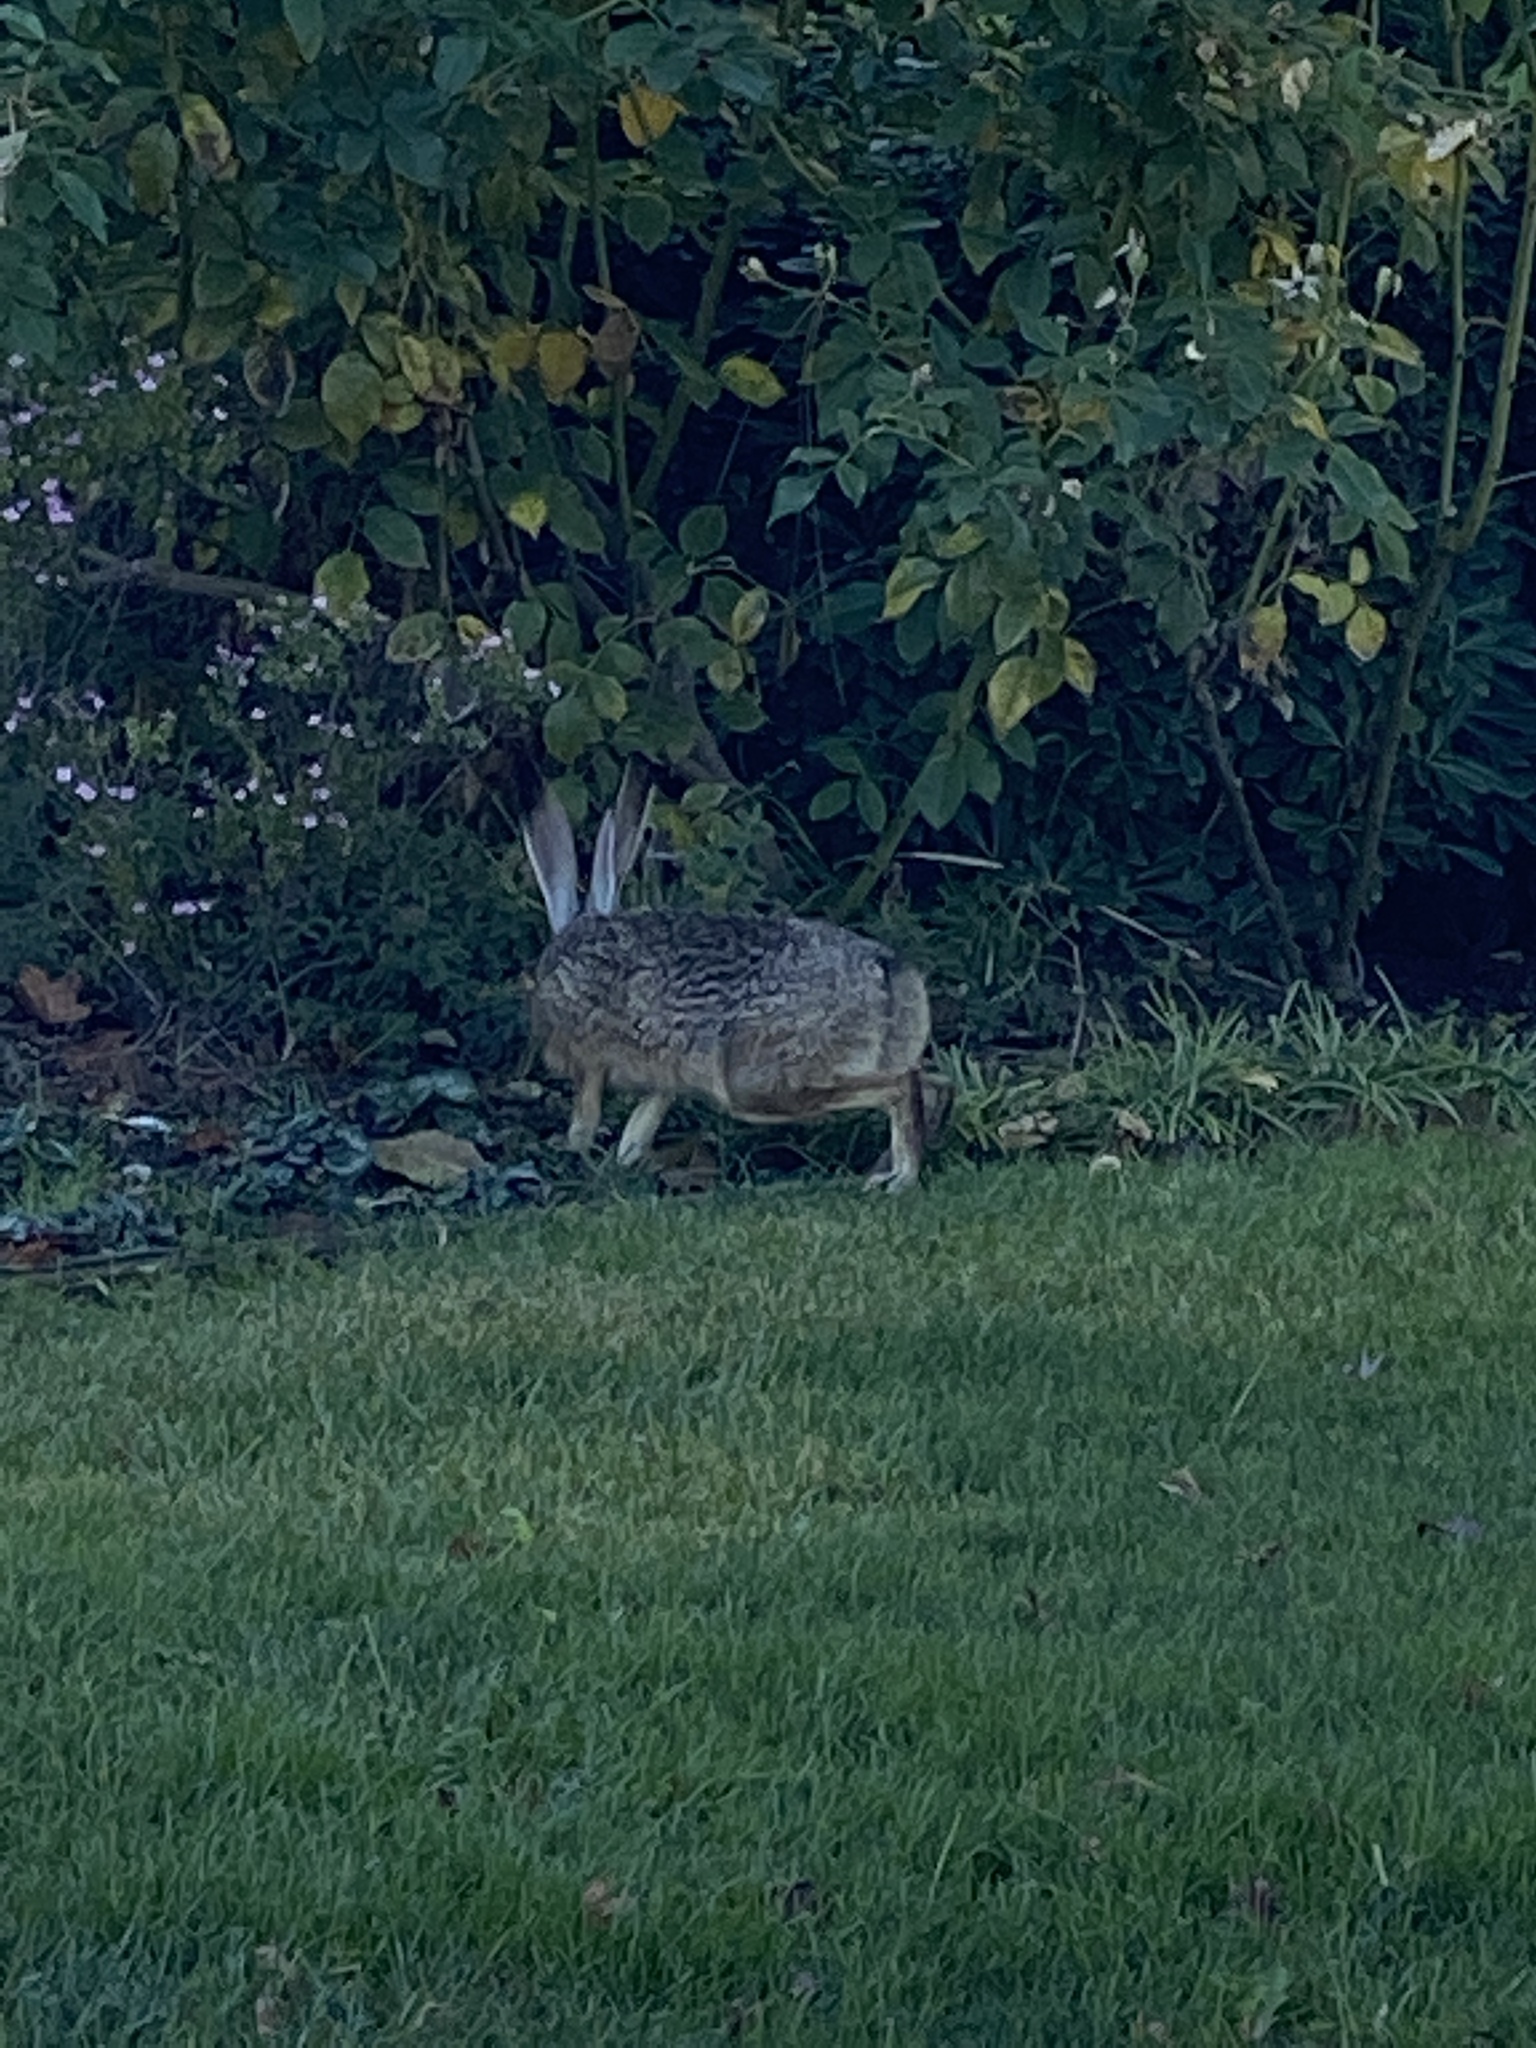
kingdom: Animalia
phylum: Chordata
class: Mammalia
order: Lagomorpha
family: Leporidae
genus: Lepus
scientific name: Lepus californicus
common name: Black-tailed jackrabbit
